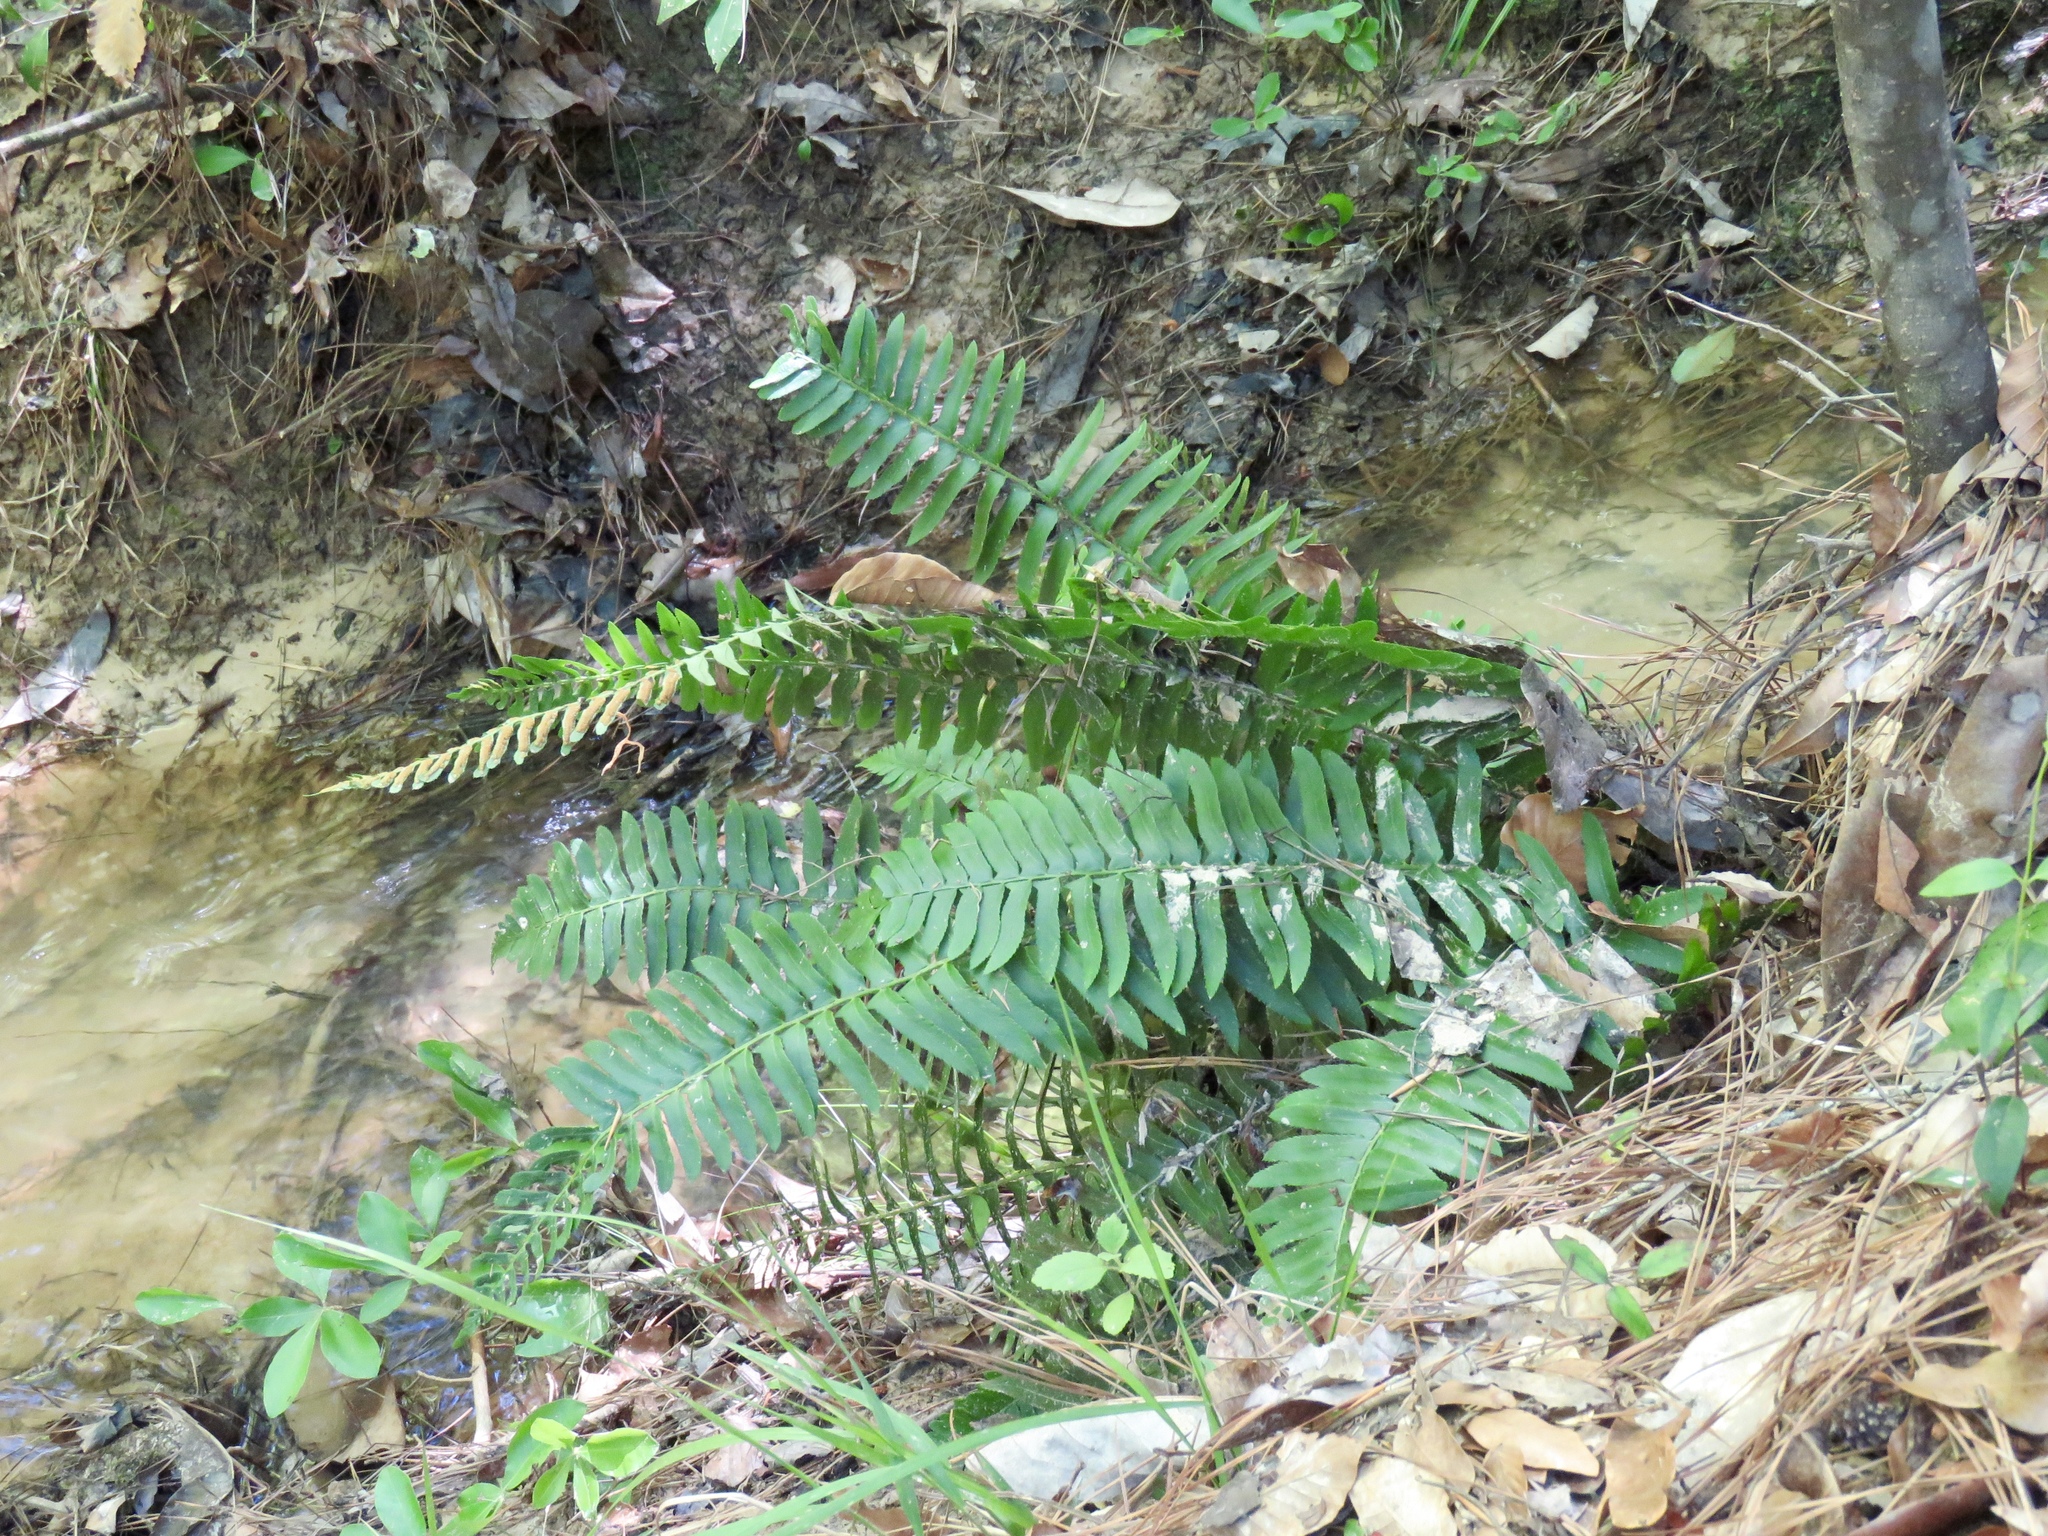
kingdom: Plantae
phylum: Tracheophyta
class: Polypodiopsida
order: Polypodiales
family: Dryopteridaceae
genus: Polystichum
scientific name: Polystichum acrostichoides
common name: Christmas fern
